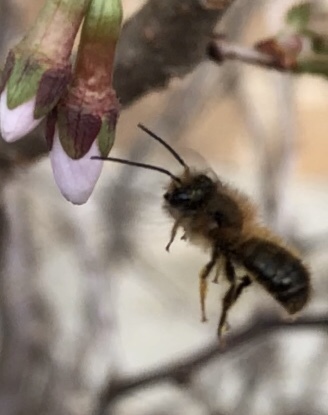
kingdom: Animalia
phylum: Arthropoda
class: Insecta
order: Hymenoptera
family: Megachilidae
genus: Osmia
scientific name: Osmia taurus
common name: Taurus mason bee
